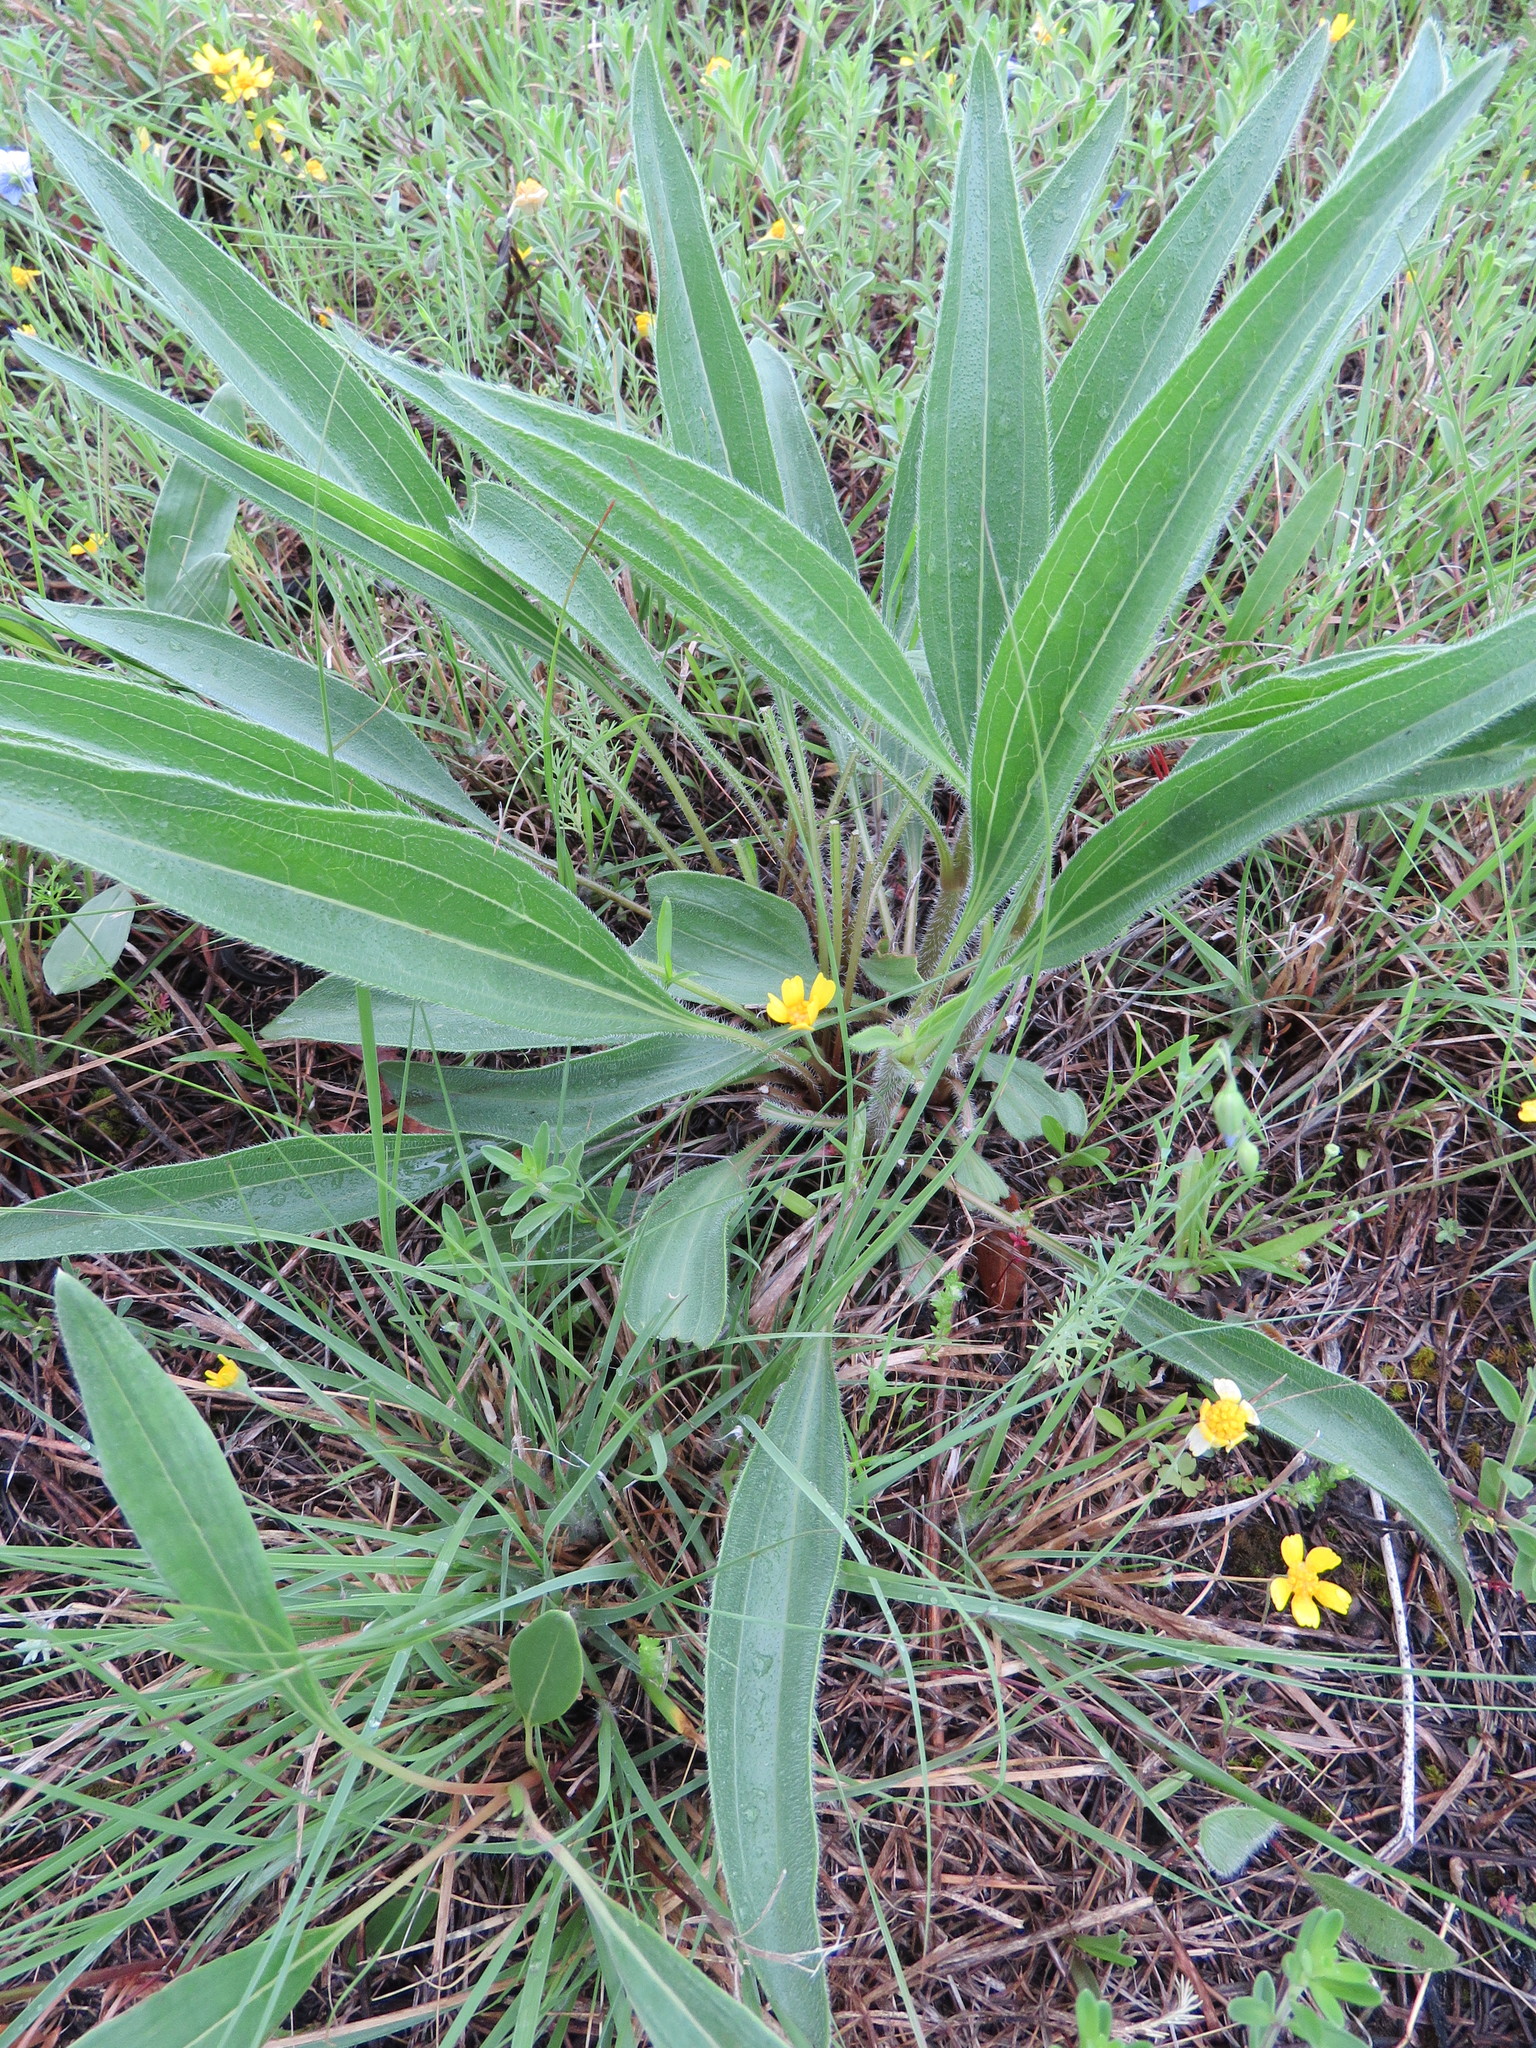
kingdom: Plantae
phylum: Tracheophyta
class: Magnoliopsida
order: Caryophyllales
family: Polygonaceae
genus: Eriogonum
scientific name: Eriogonum longifolium
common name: Longleaf wild buckwheat
